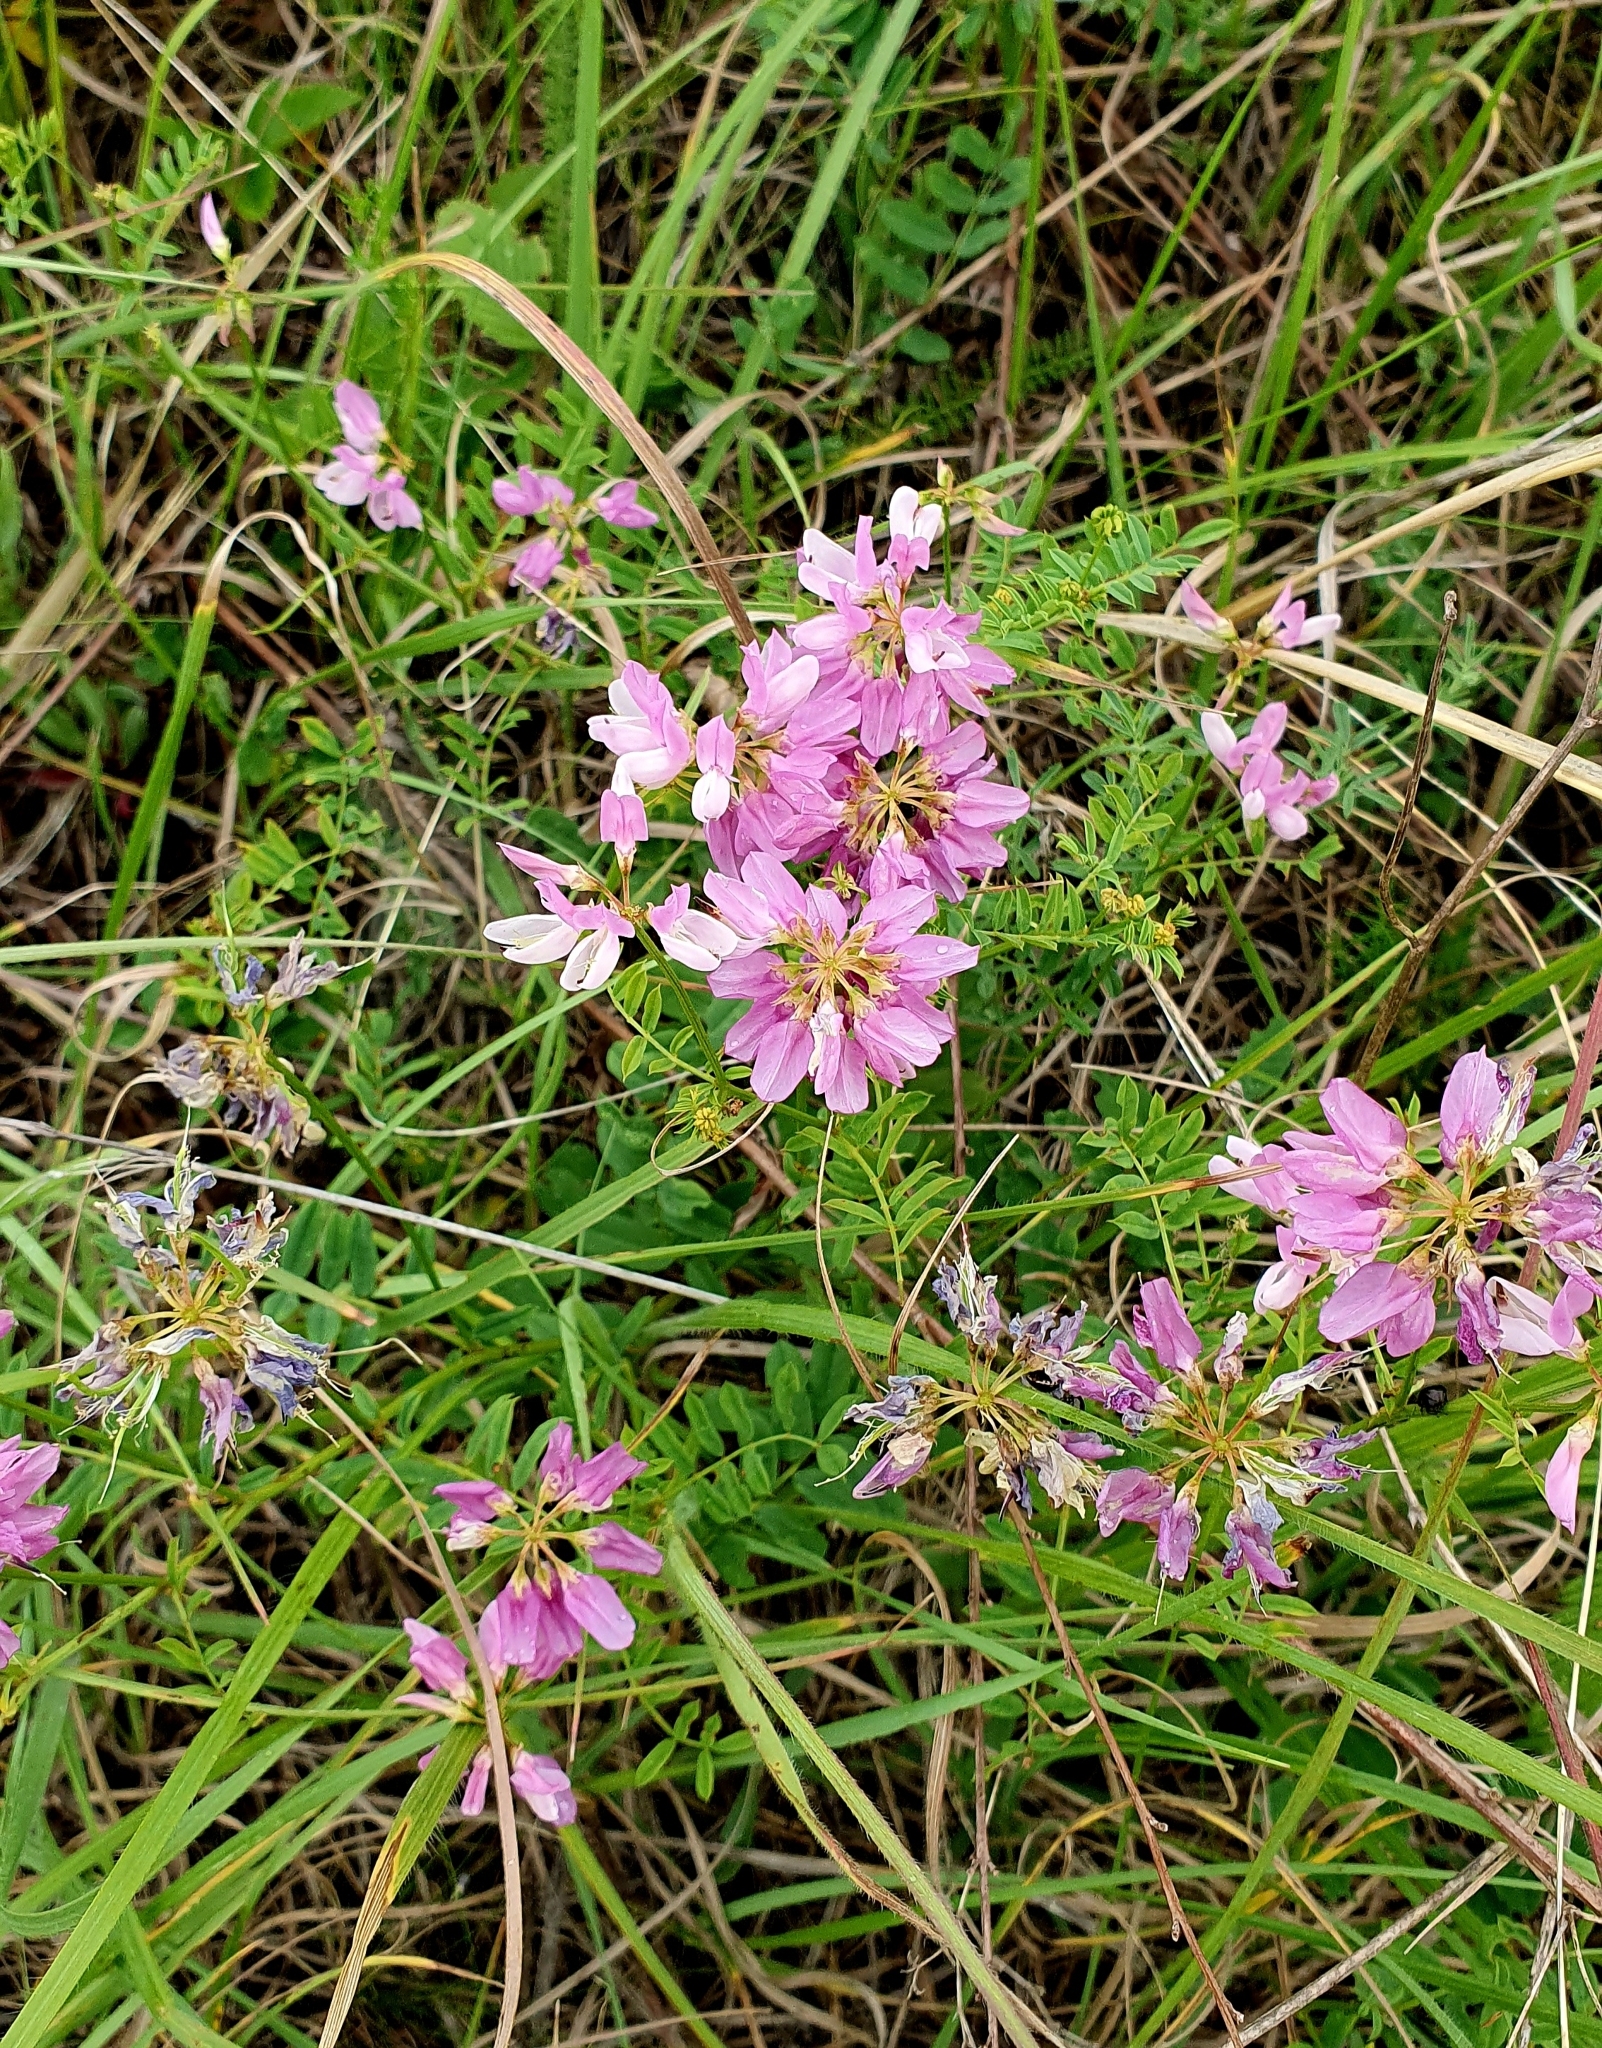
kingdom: Plantae
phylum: Tracheophyta
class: Magnoliopsida
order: Fabales
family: Fabaceae
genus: Coronilla
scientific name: Coronilla varia
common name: Crownvetch
